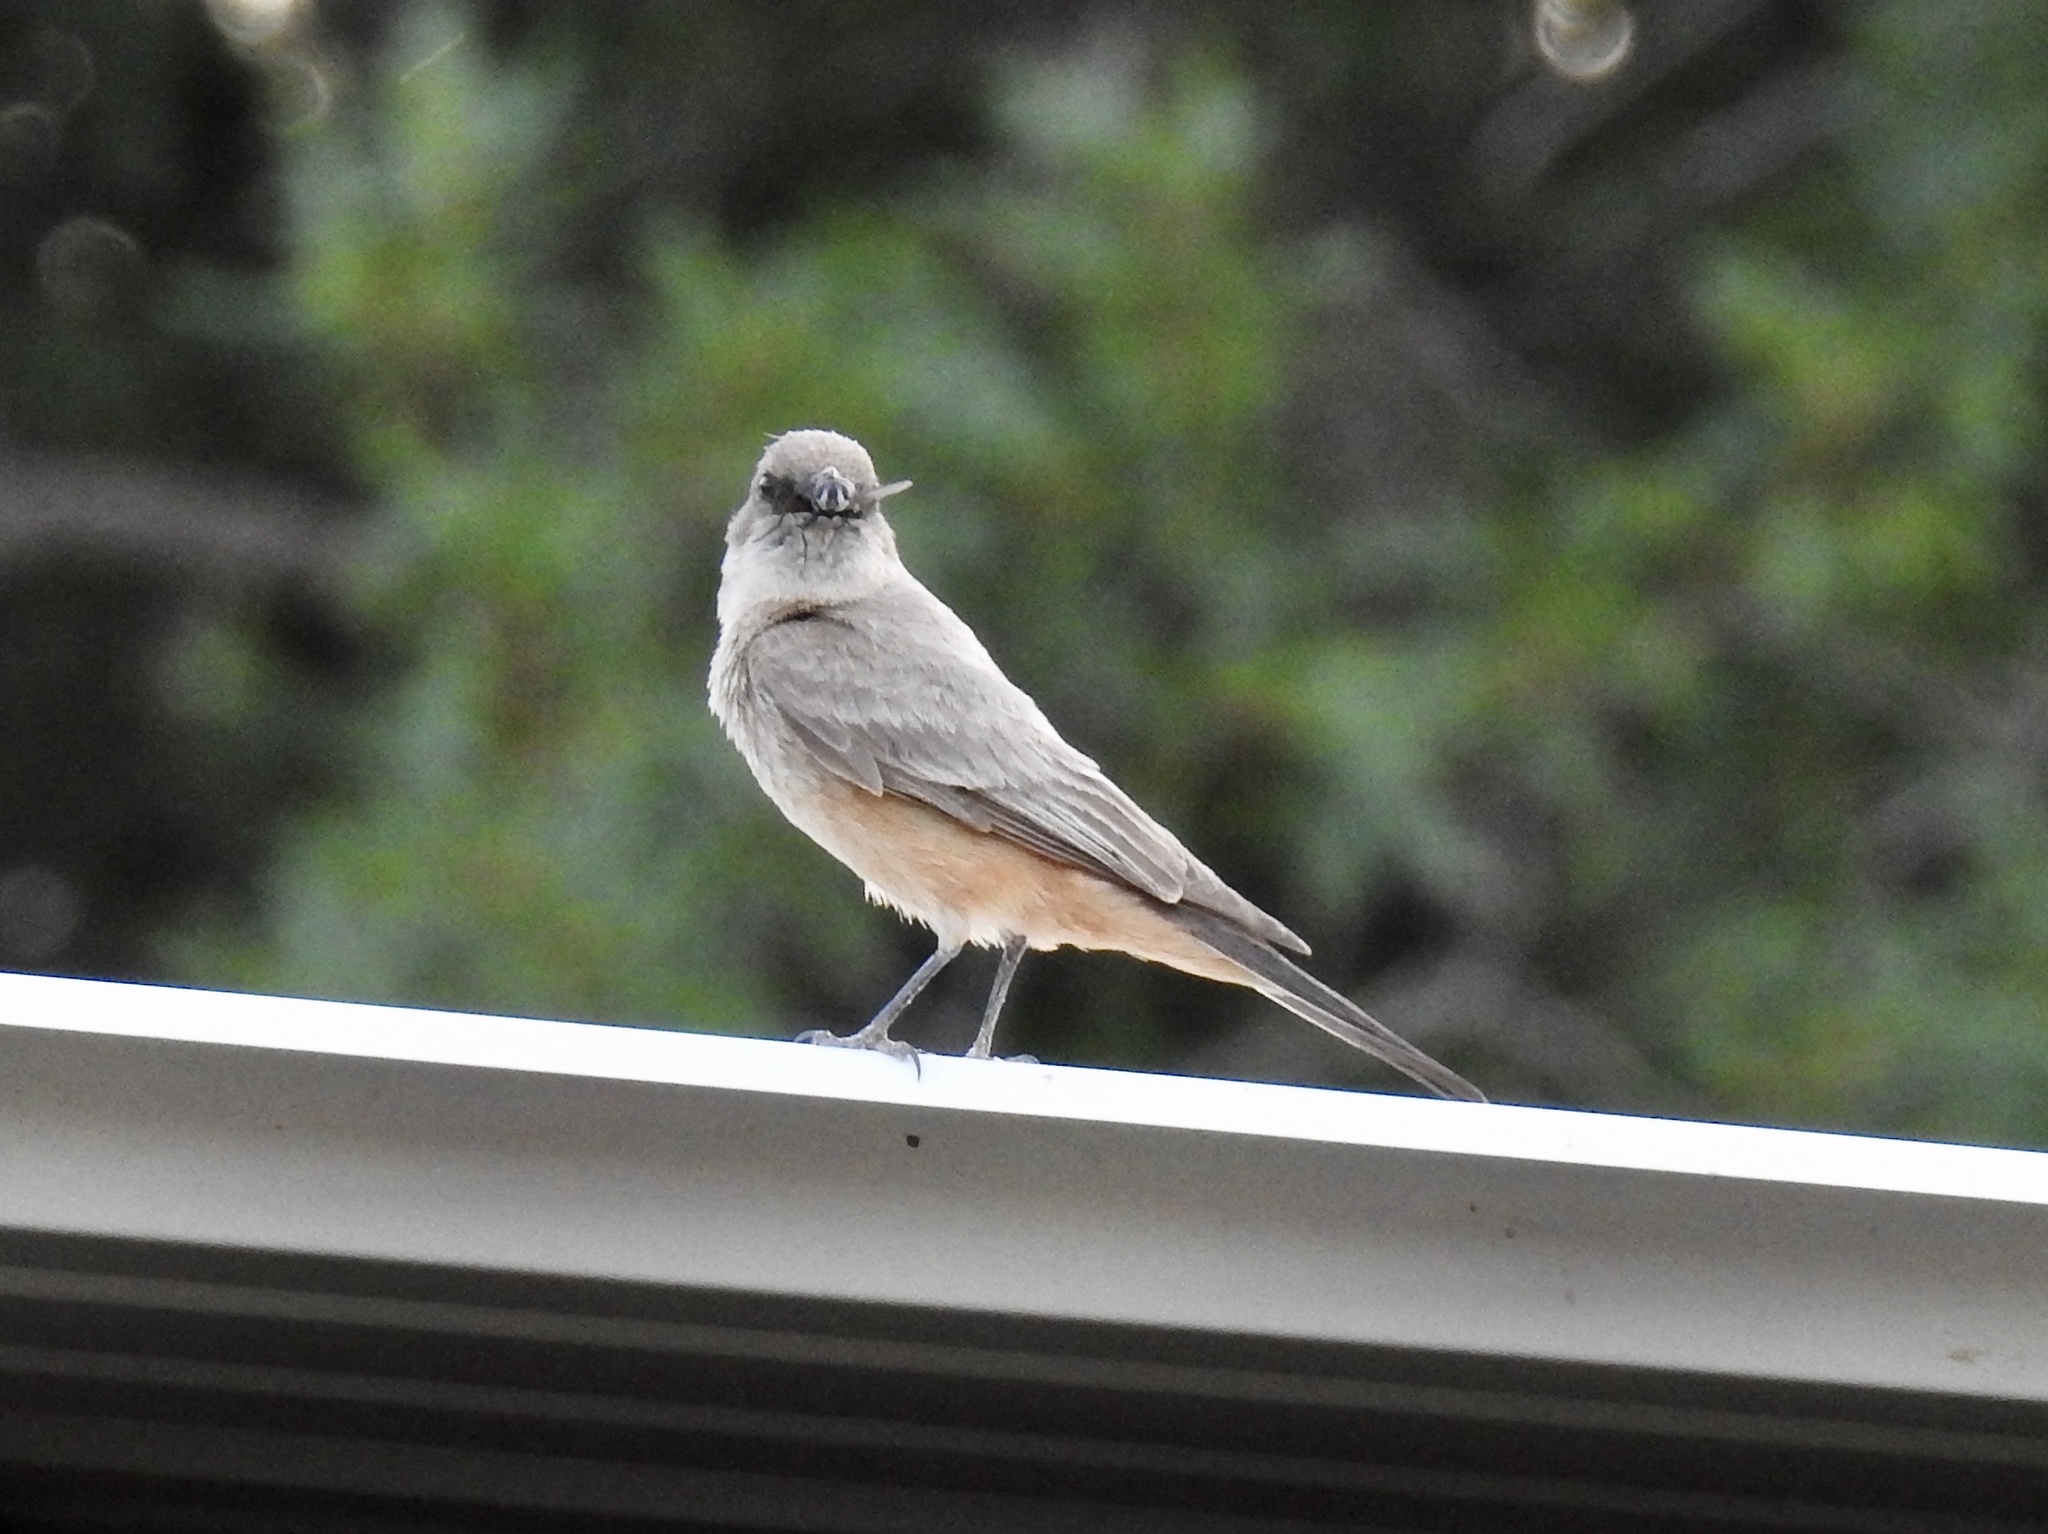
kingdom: Animalia
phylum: Chordata
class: Aves
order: Passeriformes
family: Tyrannidae
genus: Sayornis
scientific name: Sayornis saya
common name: Say's phoebe
